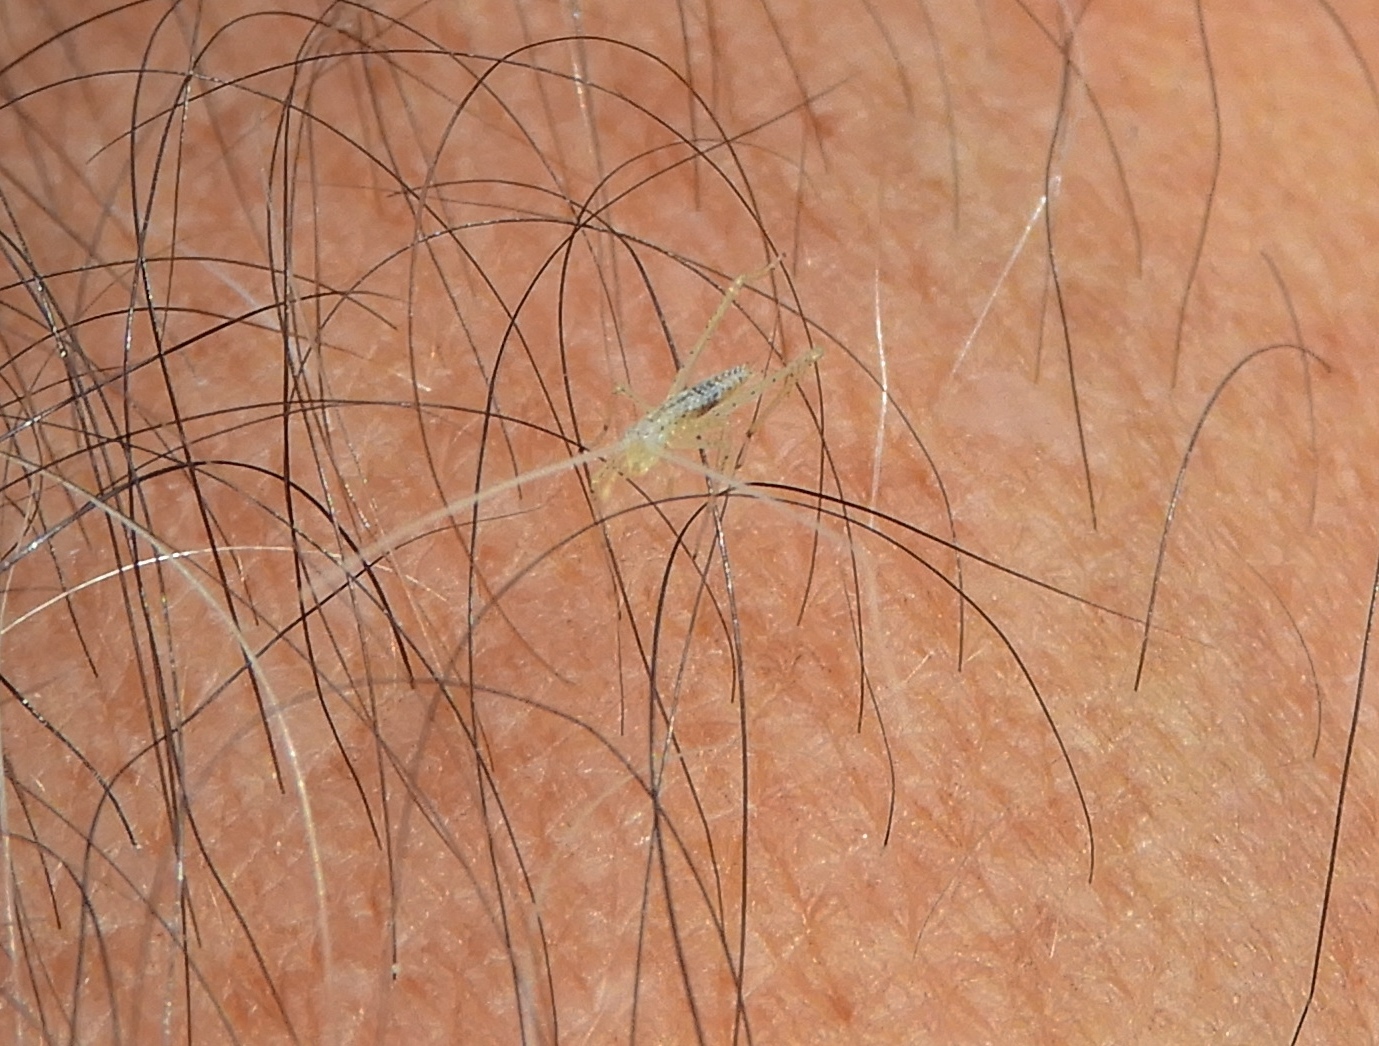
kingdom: Animalia
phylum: Arthropoda
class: Insecta
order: Orthoptera
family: Oecanthidae
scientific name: Oecanthidae
